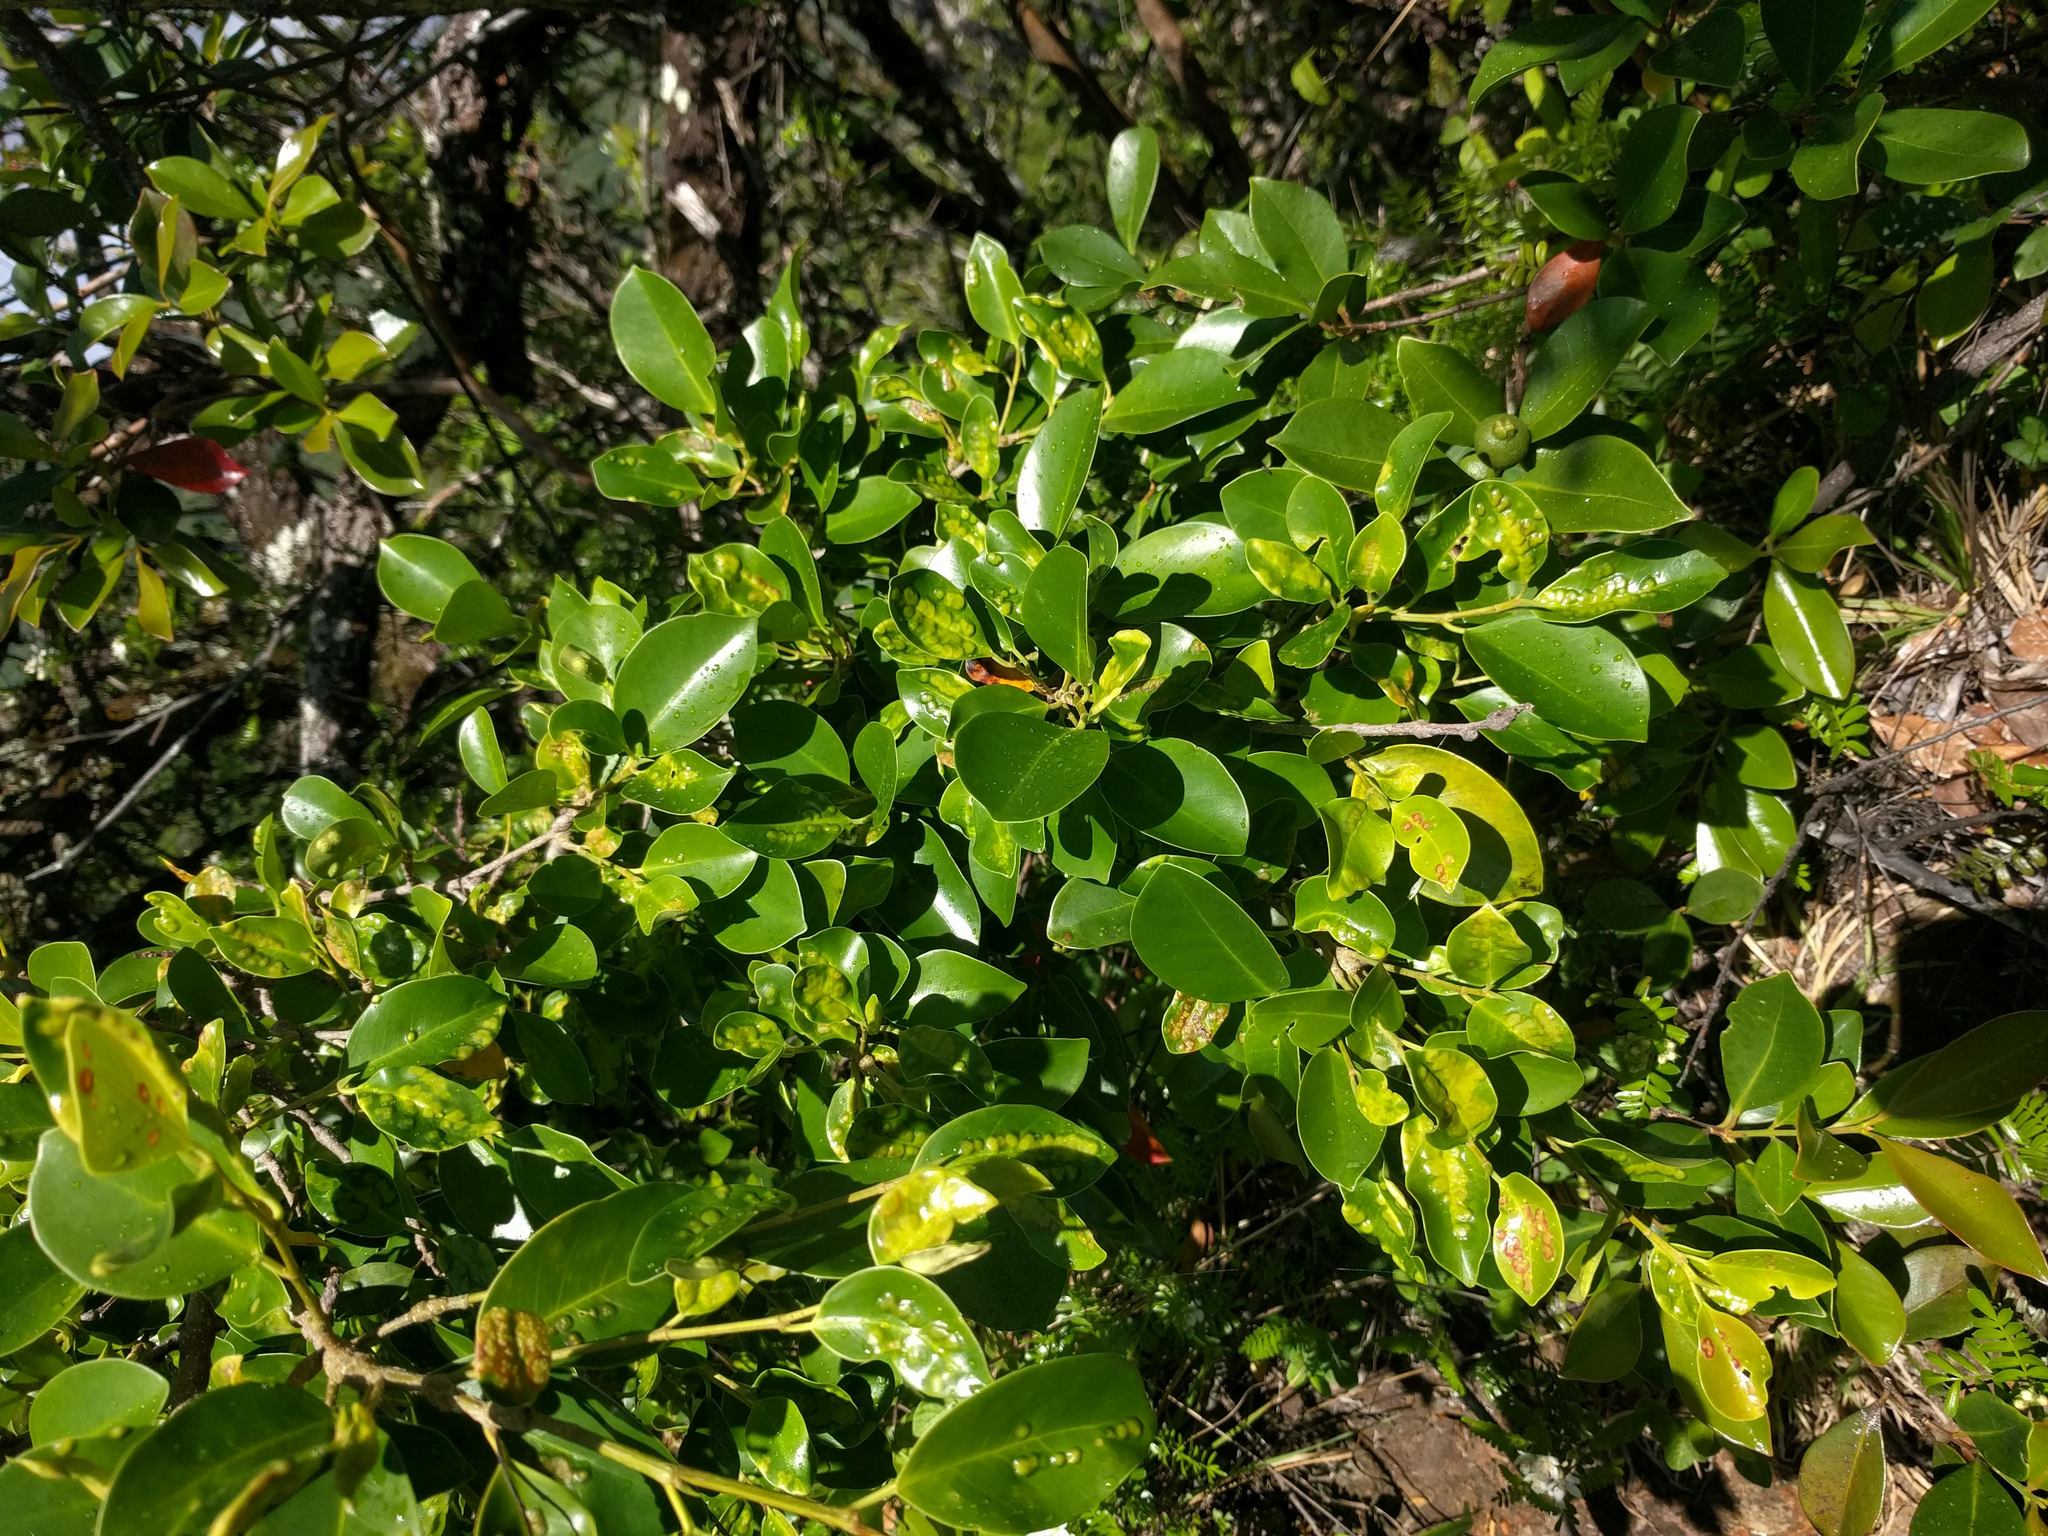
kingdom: Animalia
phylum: Arthropoda
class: Insecta
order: Hymenoptera
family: Agaonidae
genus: Josephiella
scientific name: Josephiella microcarpae
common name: Wasp
